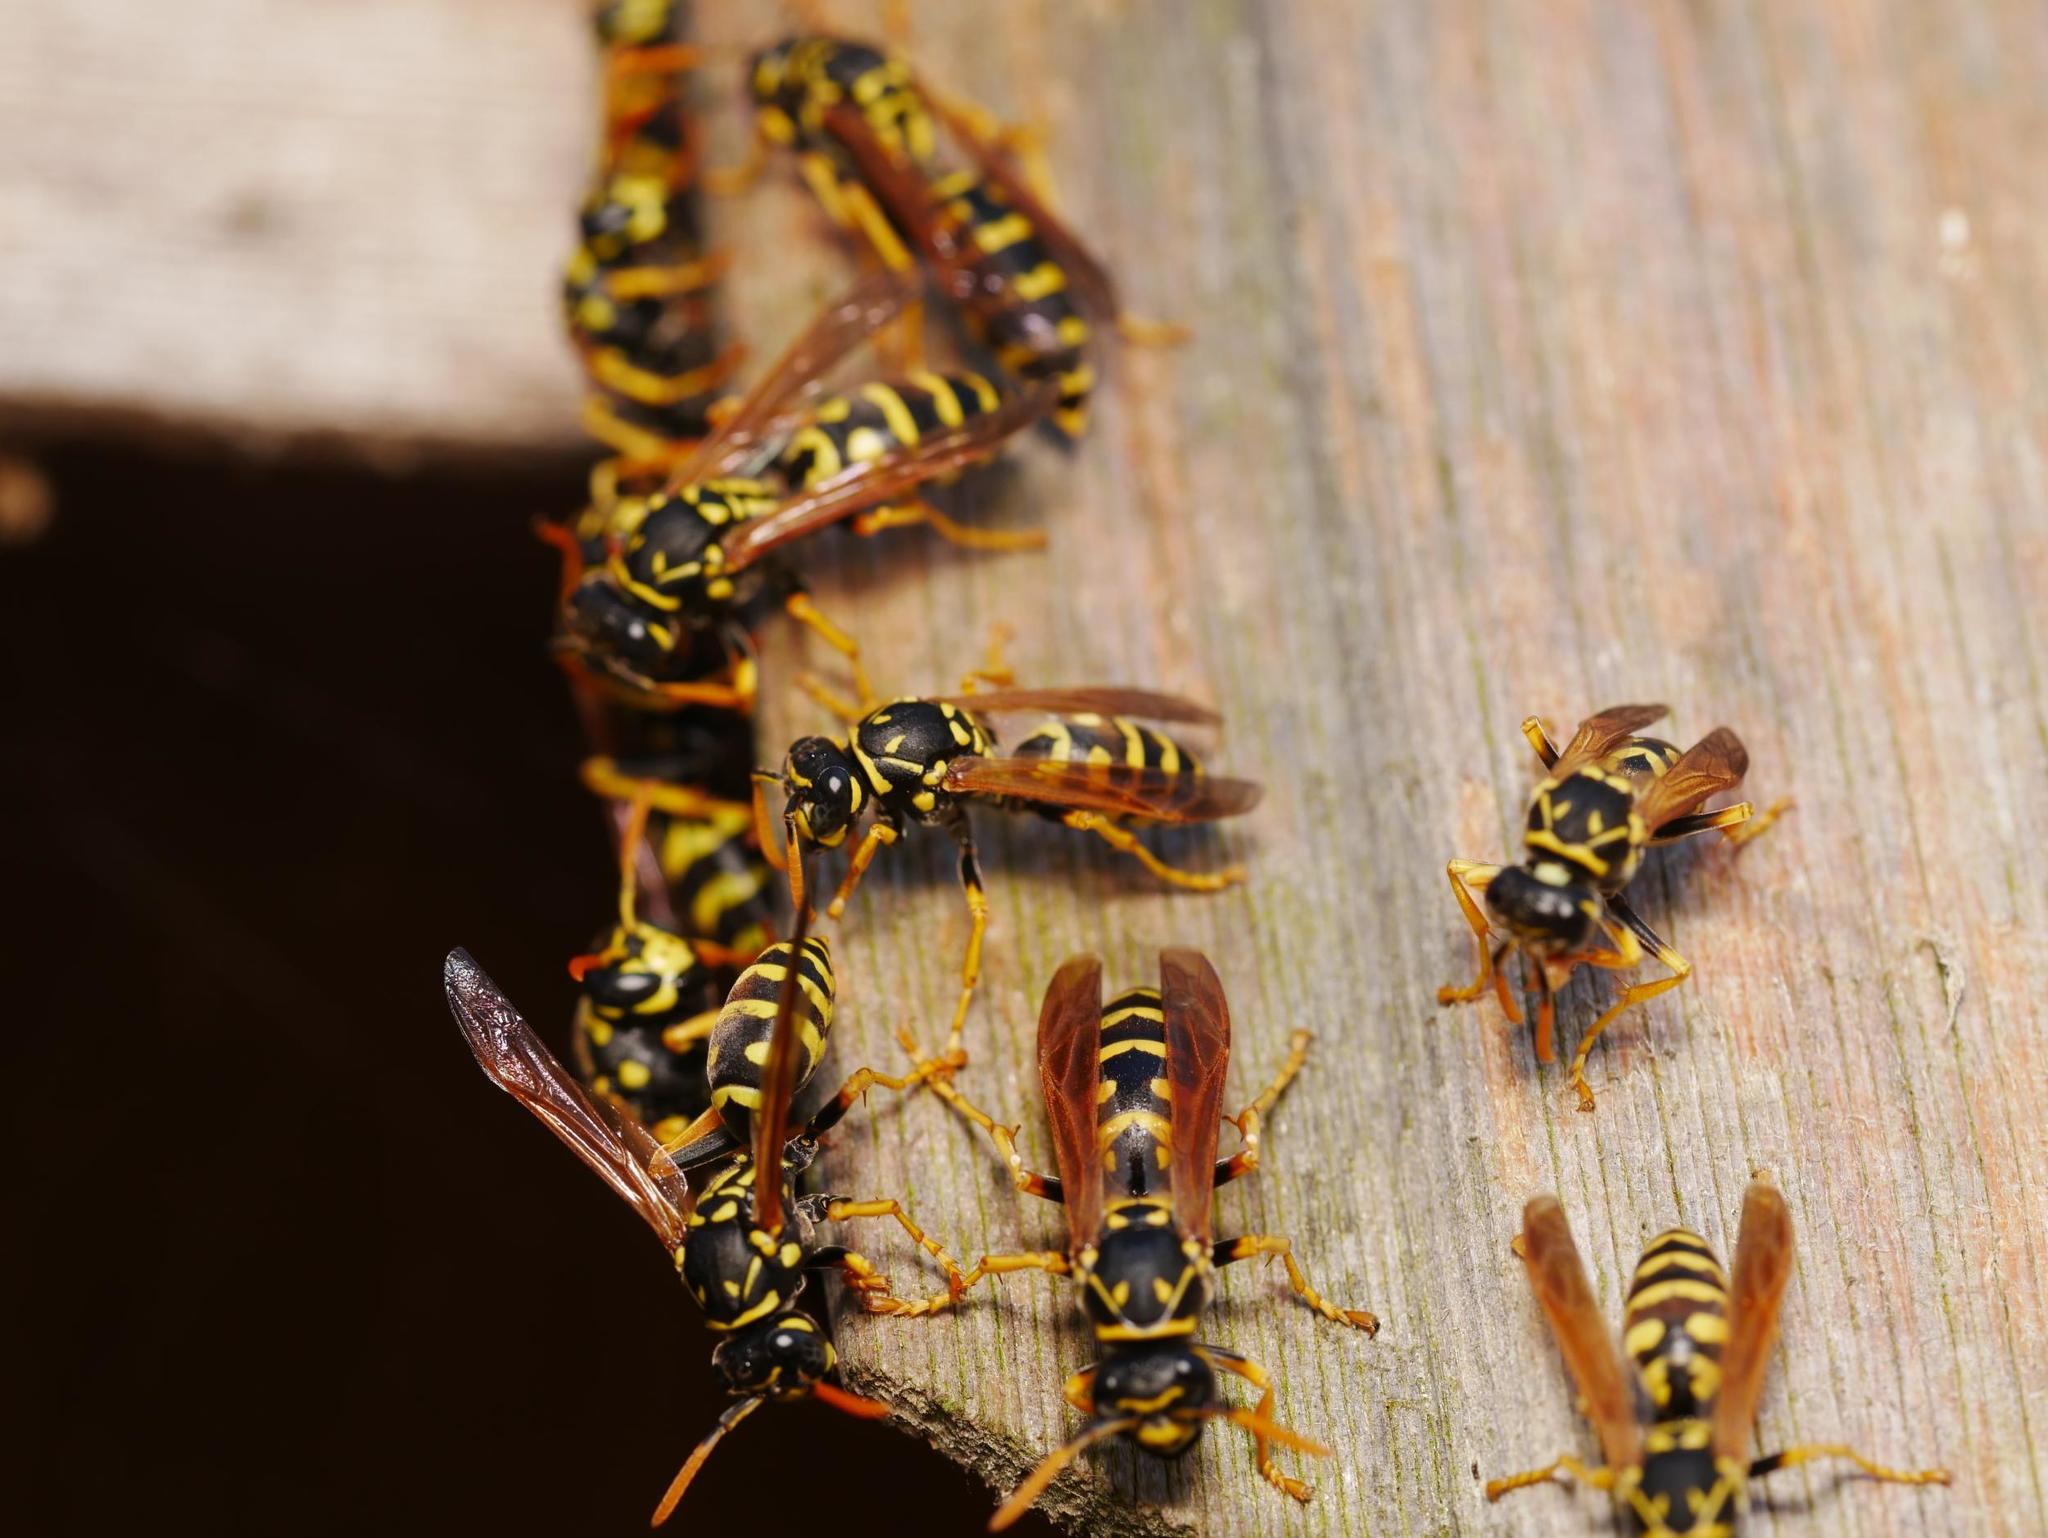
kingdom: Animalia
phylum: Arthropoda
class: Insecta
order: Hymenoptera
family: Eumenidae
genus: Polistes
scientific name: Polistes dominula
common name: Paper wasp
